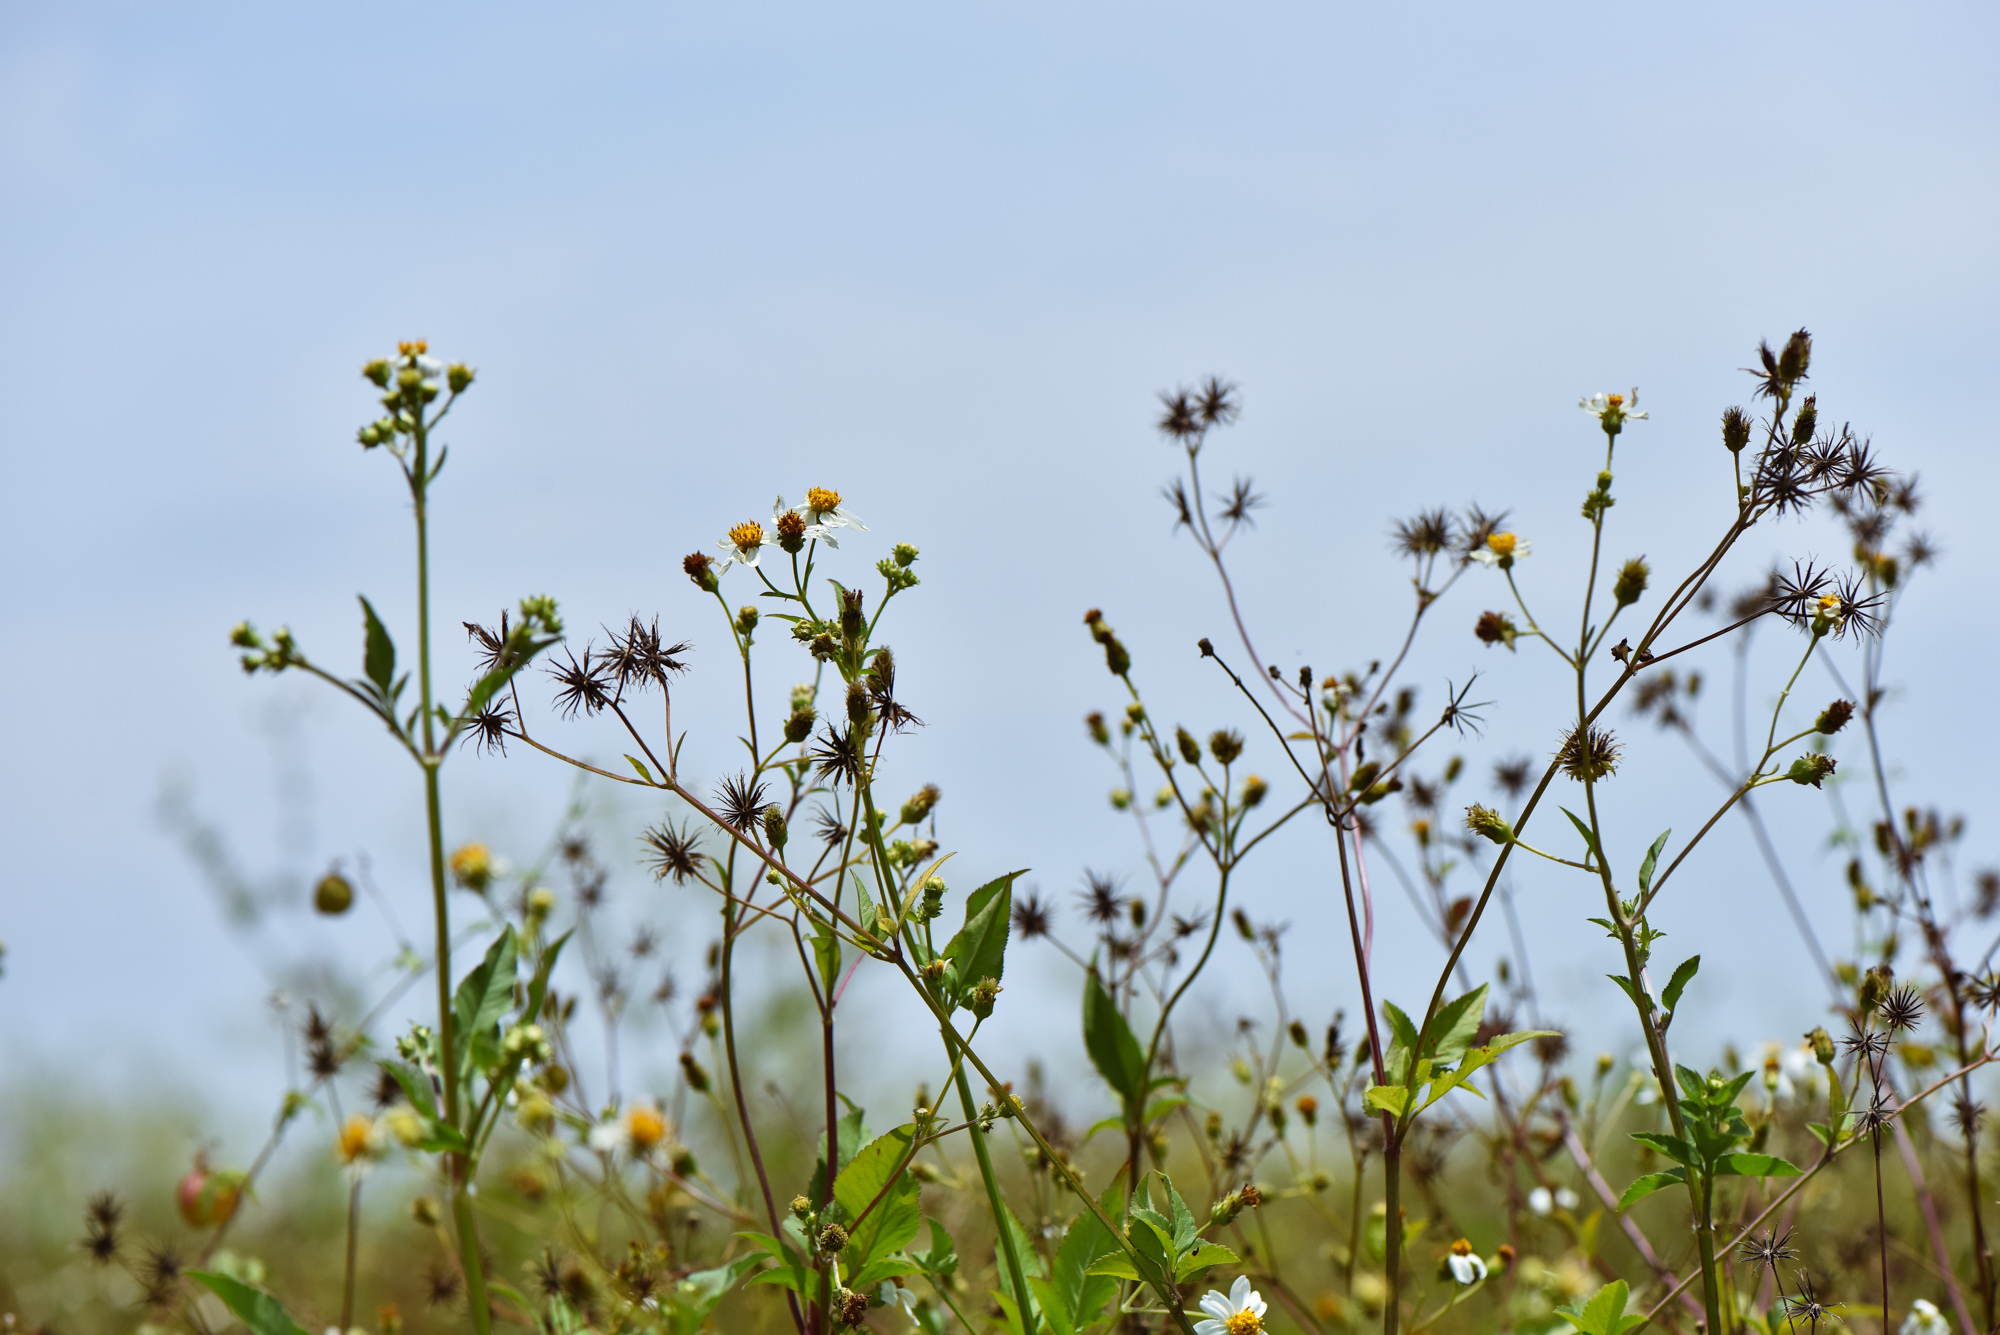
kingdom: Plantae
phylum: Tracheophyta
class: Magnoliopsida
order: Asterales
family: Asteraceae
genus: Bidens
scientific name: Bidens alba
